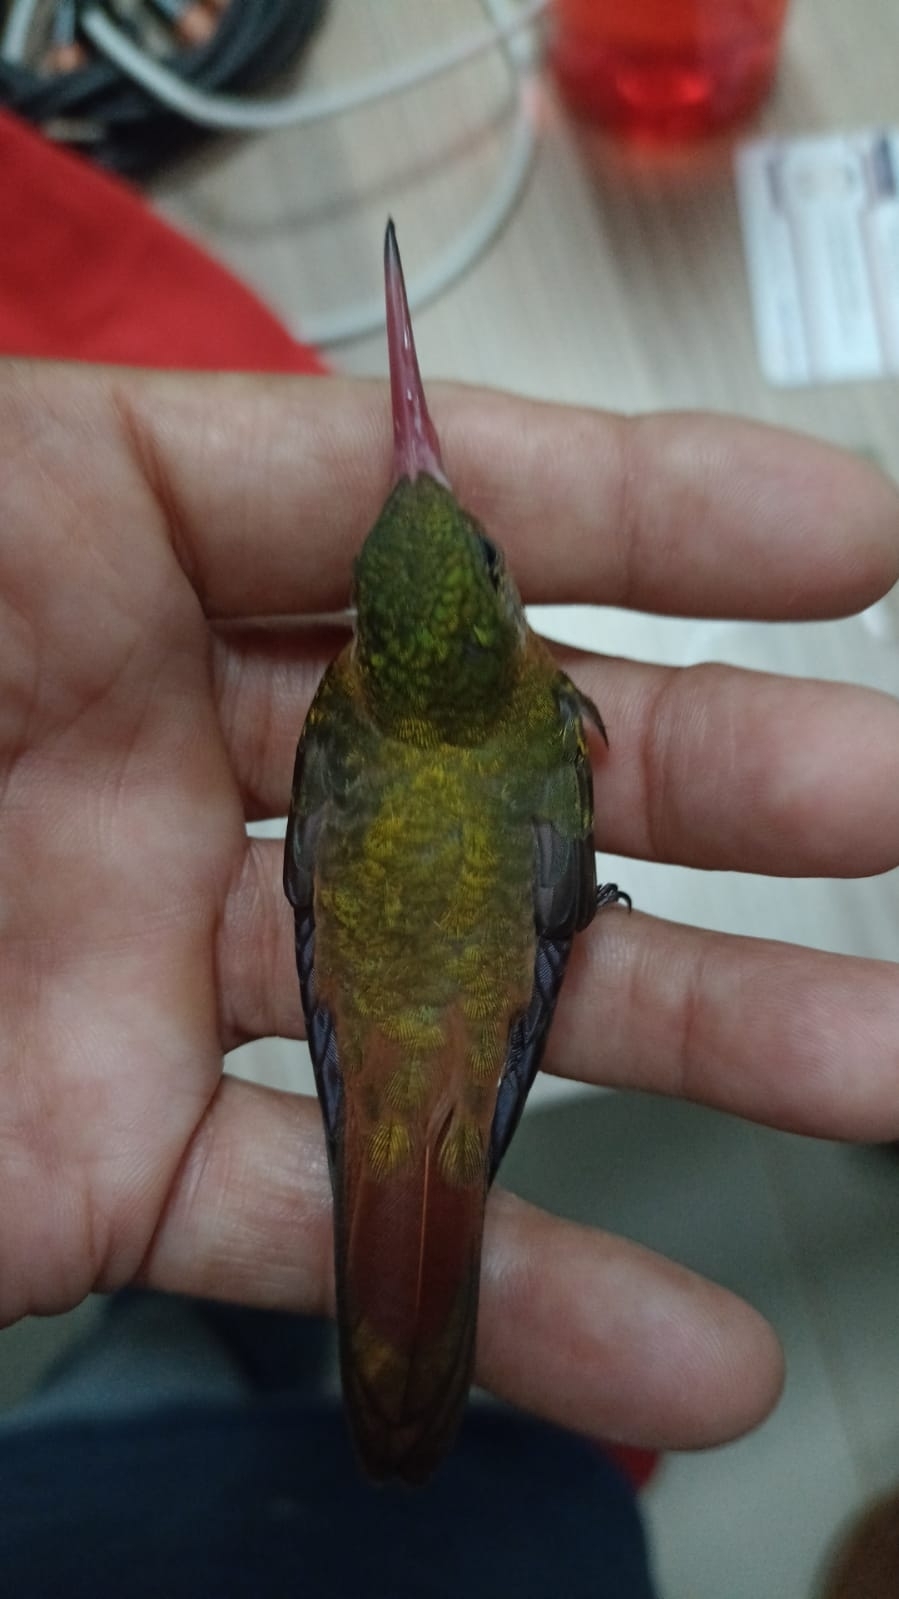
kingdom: Animalia
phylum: Chordata
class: Aves
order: Apodiformes
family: Trochilidae
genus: Amazilia
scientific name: Amazilia rutila
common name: Cinnamon hummingbird
